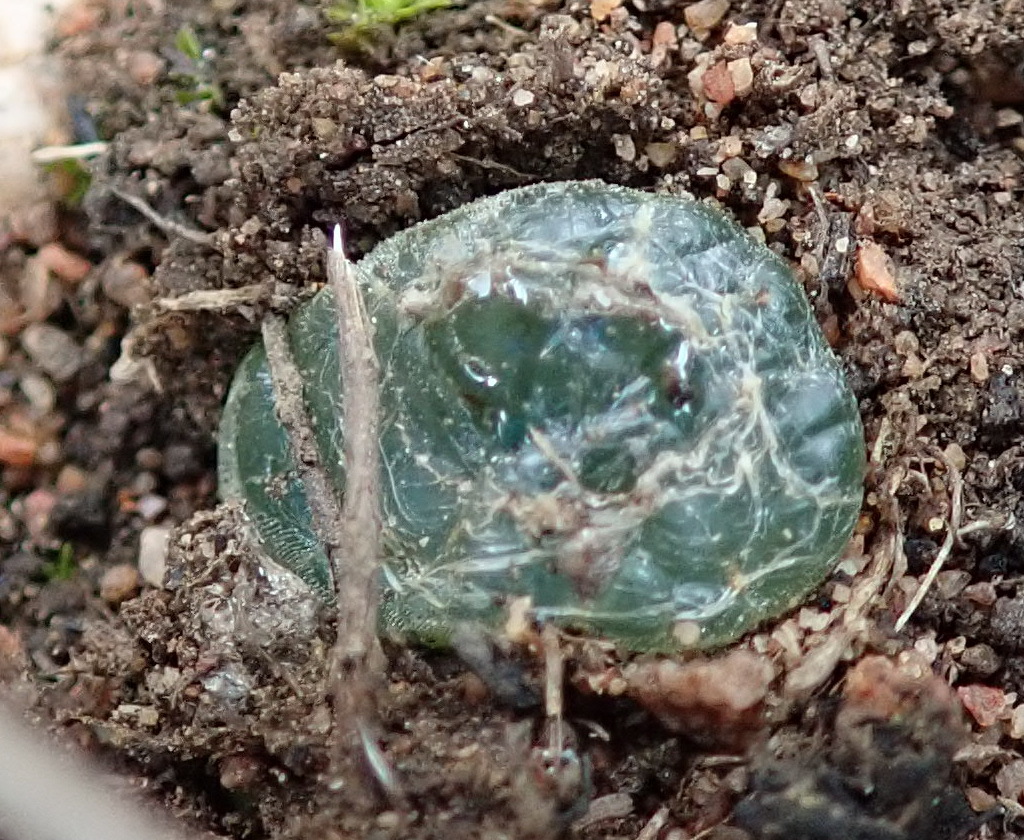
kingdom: Plantae
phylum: Tracheophyta
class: Liliopsida
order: Asparagales
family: Asphodelaceae
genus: Bulbine
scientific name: Bulbine mesembryanthoides
